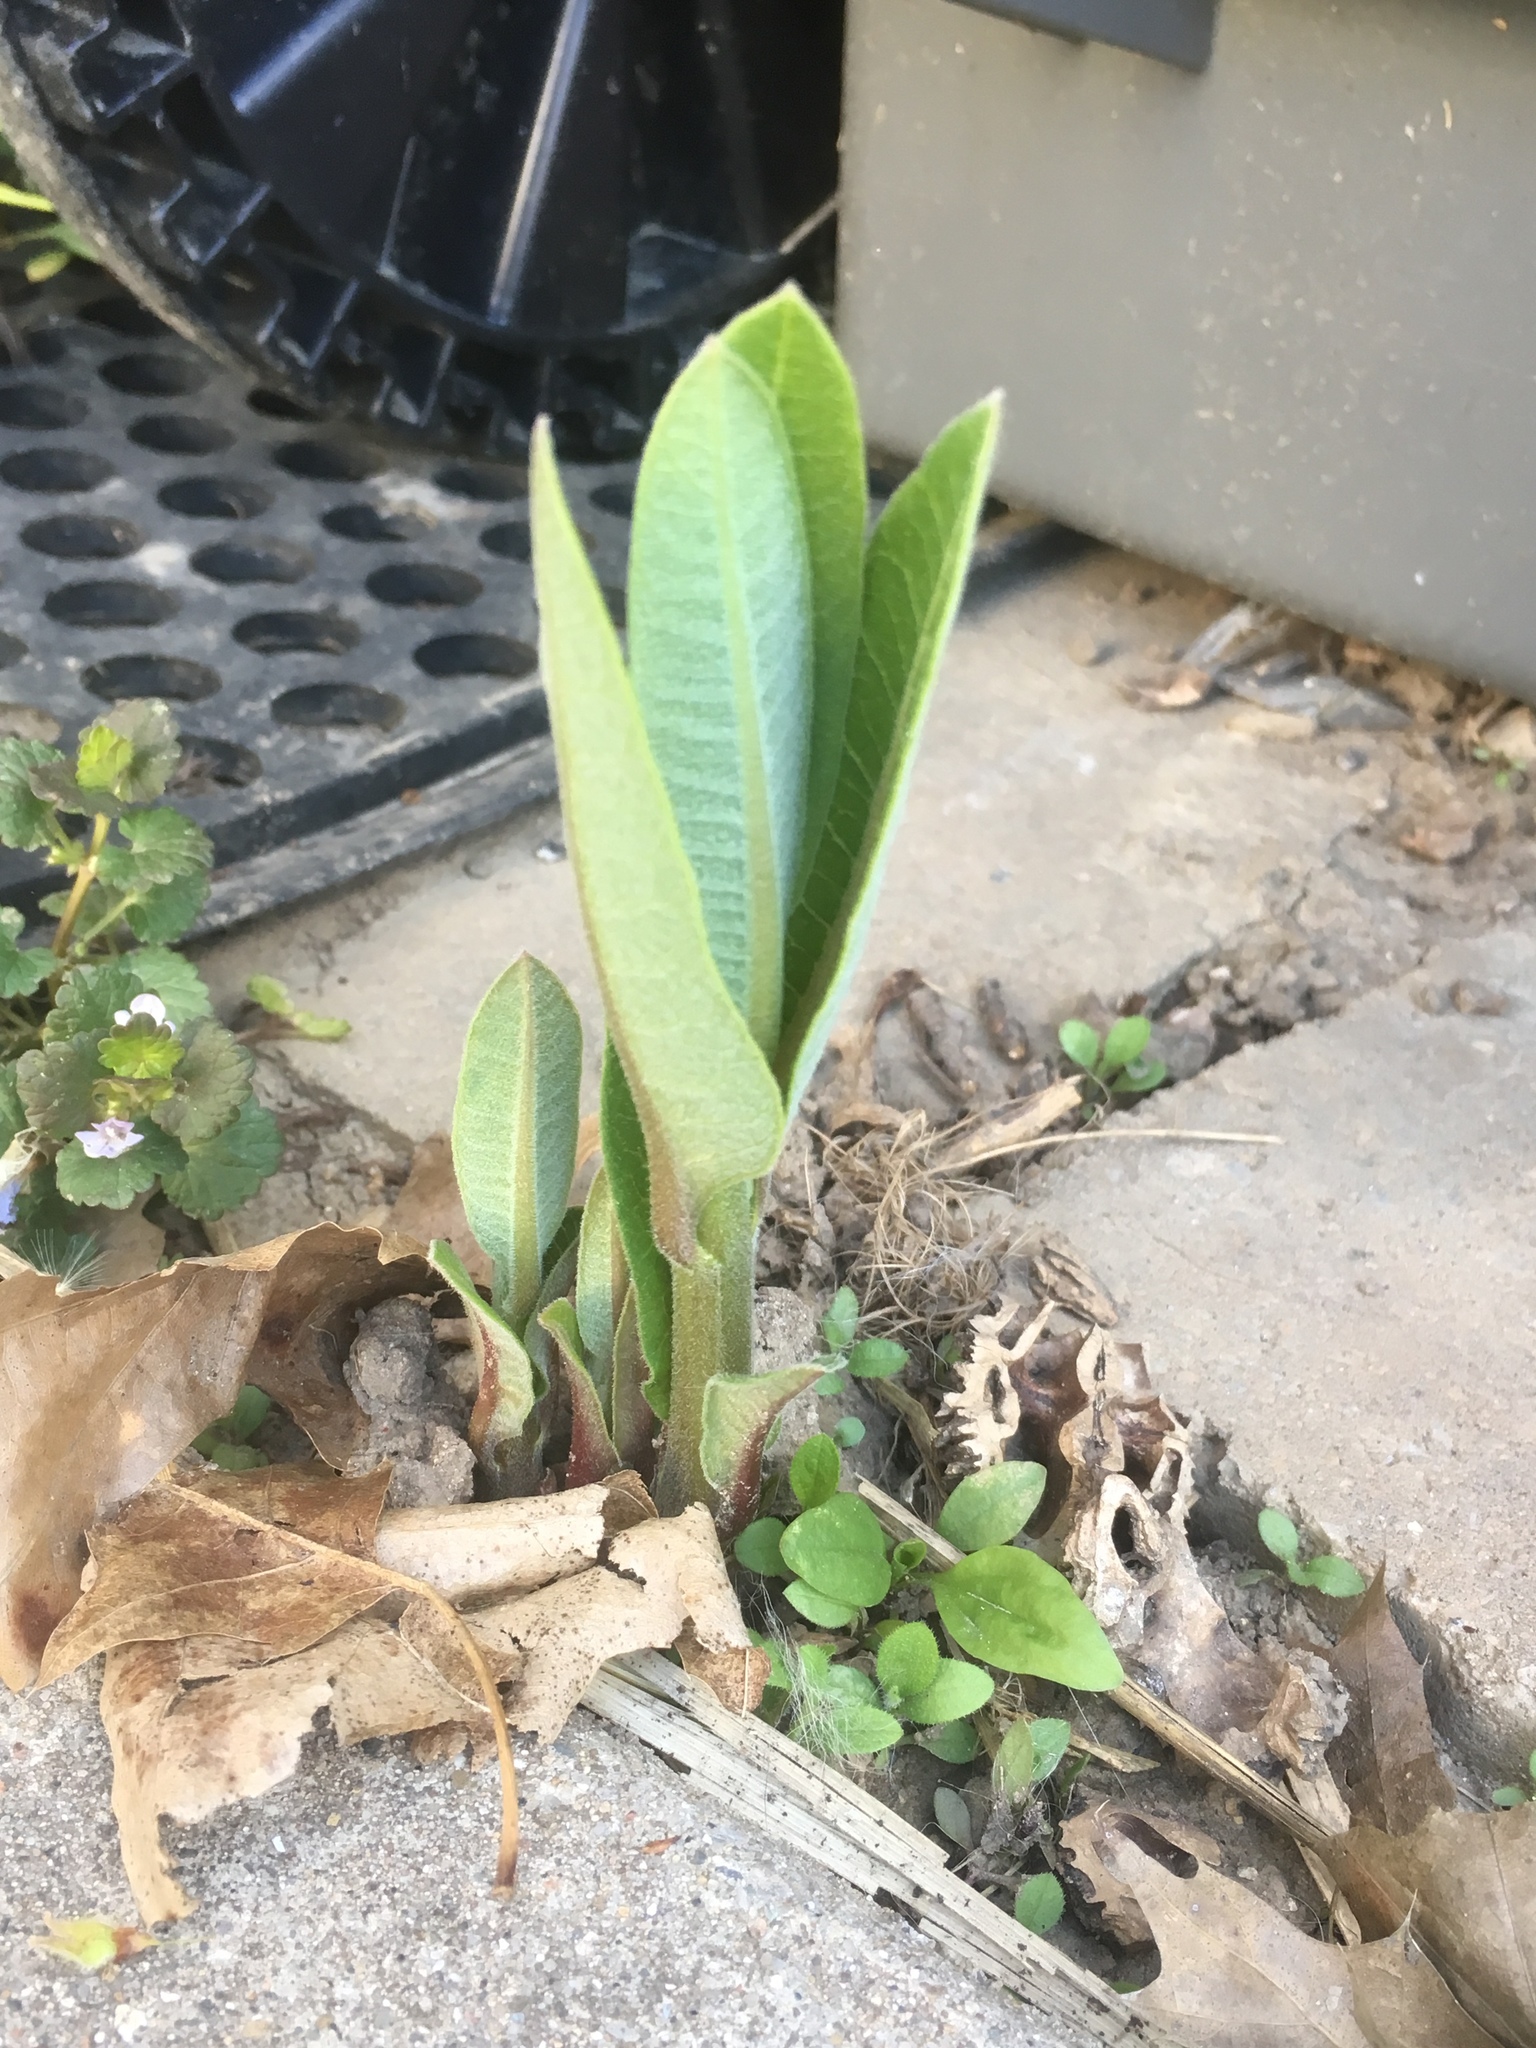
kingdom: Plantae
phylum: Tracheophyta
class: Magnoliopsida
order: Gentianales
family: Apocynaceae
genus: Asclepias
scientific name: Asclepias syriaca
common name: Common milkweed
